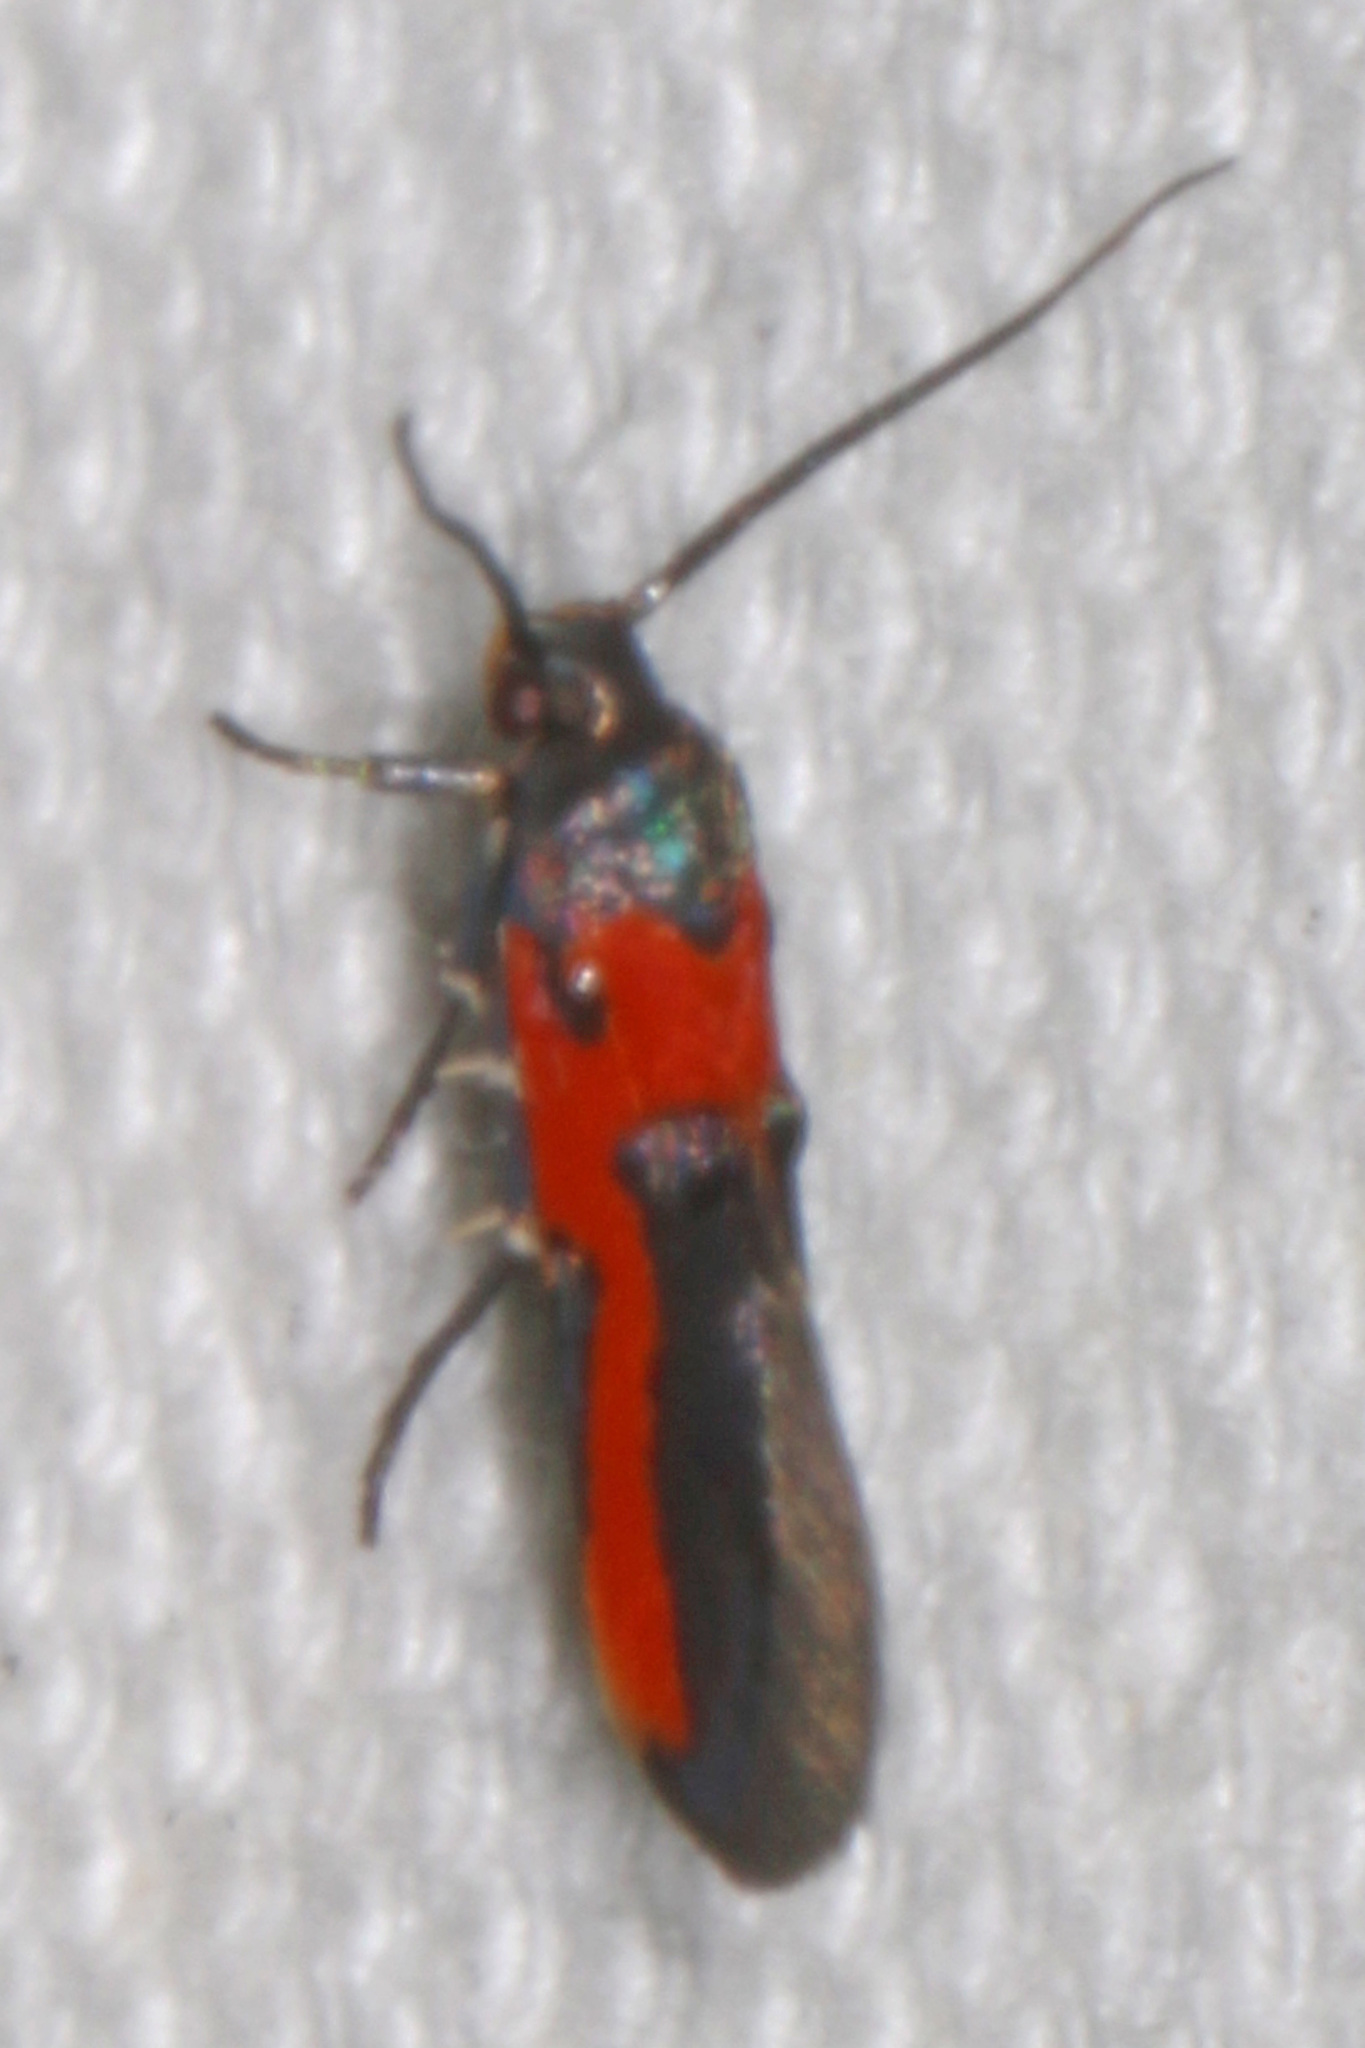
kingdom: Animalia
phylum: Arthropoda
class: Insecta
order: Lepidoptera
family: Cosmopterigidae
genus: Euclemensia
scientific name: Euclemensia bassettella
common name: Kermes scale moth
